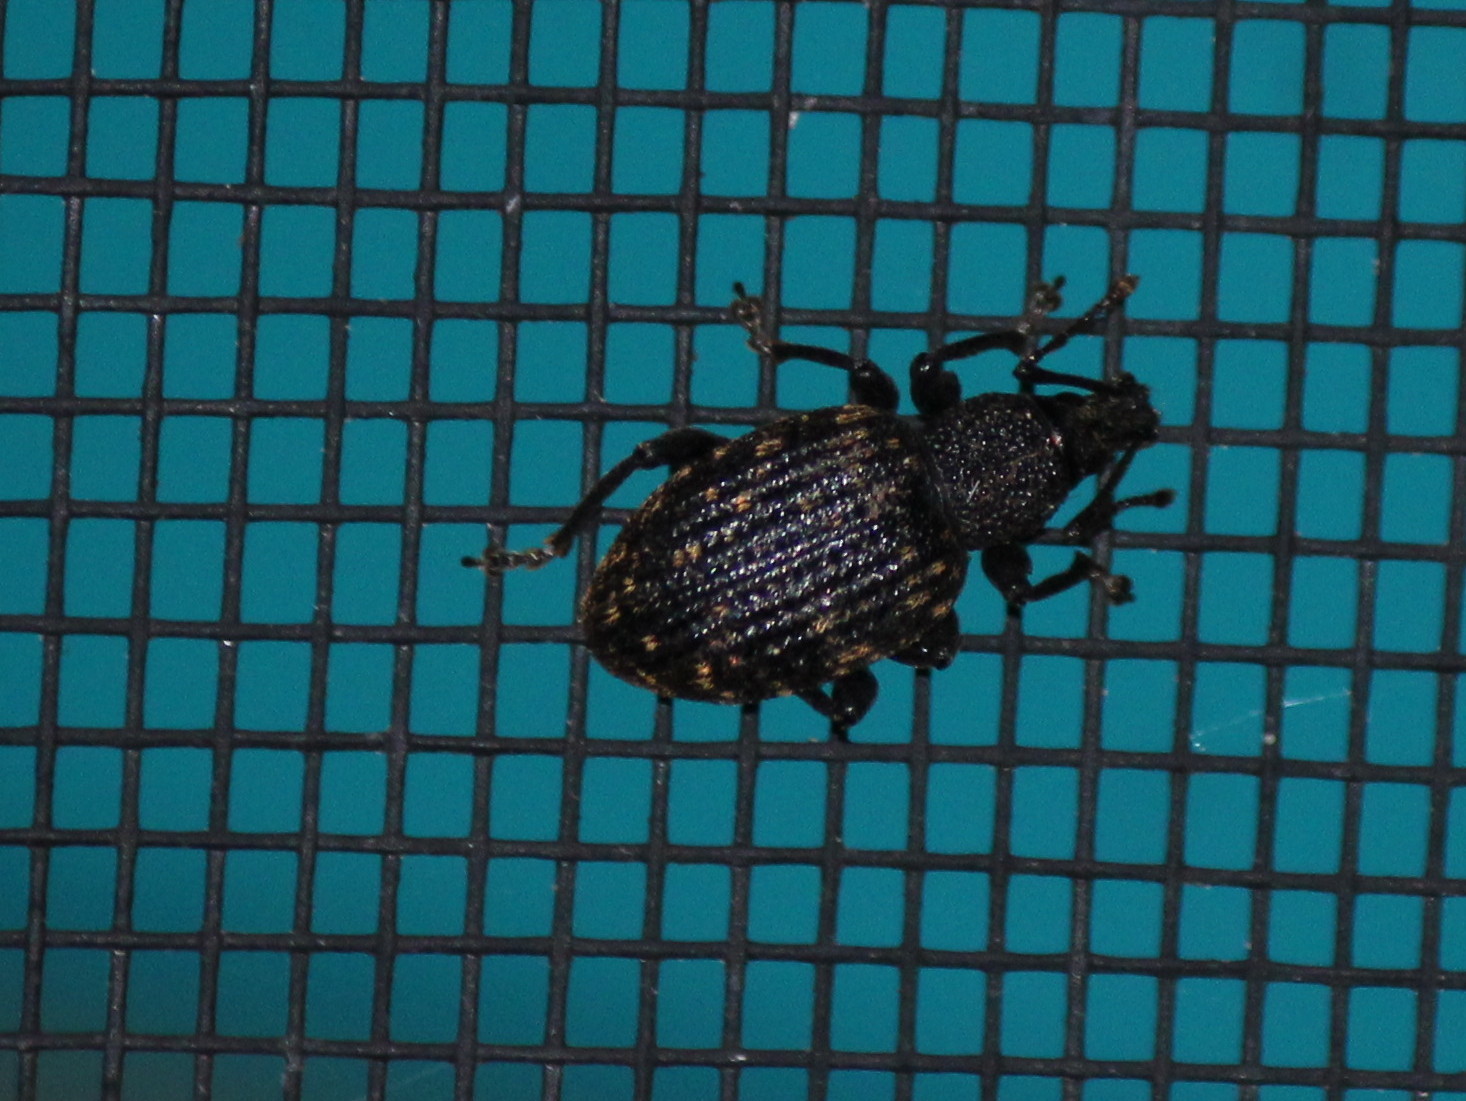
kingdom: Animalia
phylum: Arthropoda
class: Insecta
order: Coleoptera
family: Curculionidae
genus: Otiorhynchus
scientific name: Otiorhynchus sulcatus
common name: Black vine weevil
